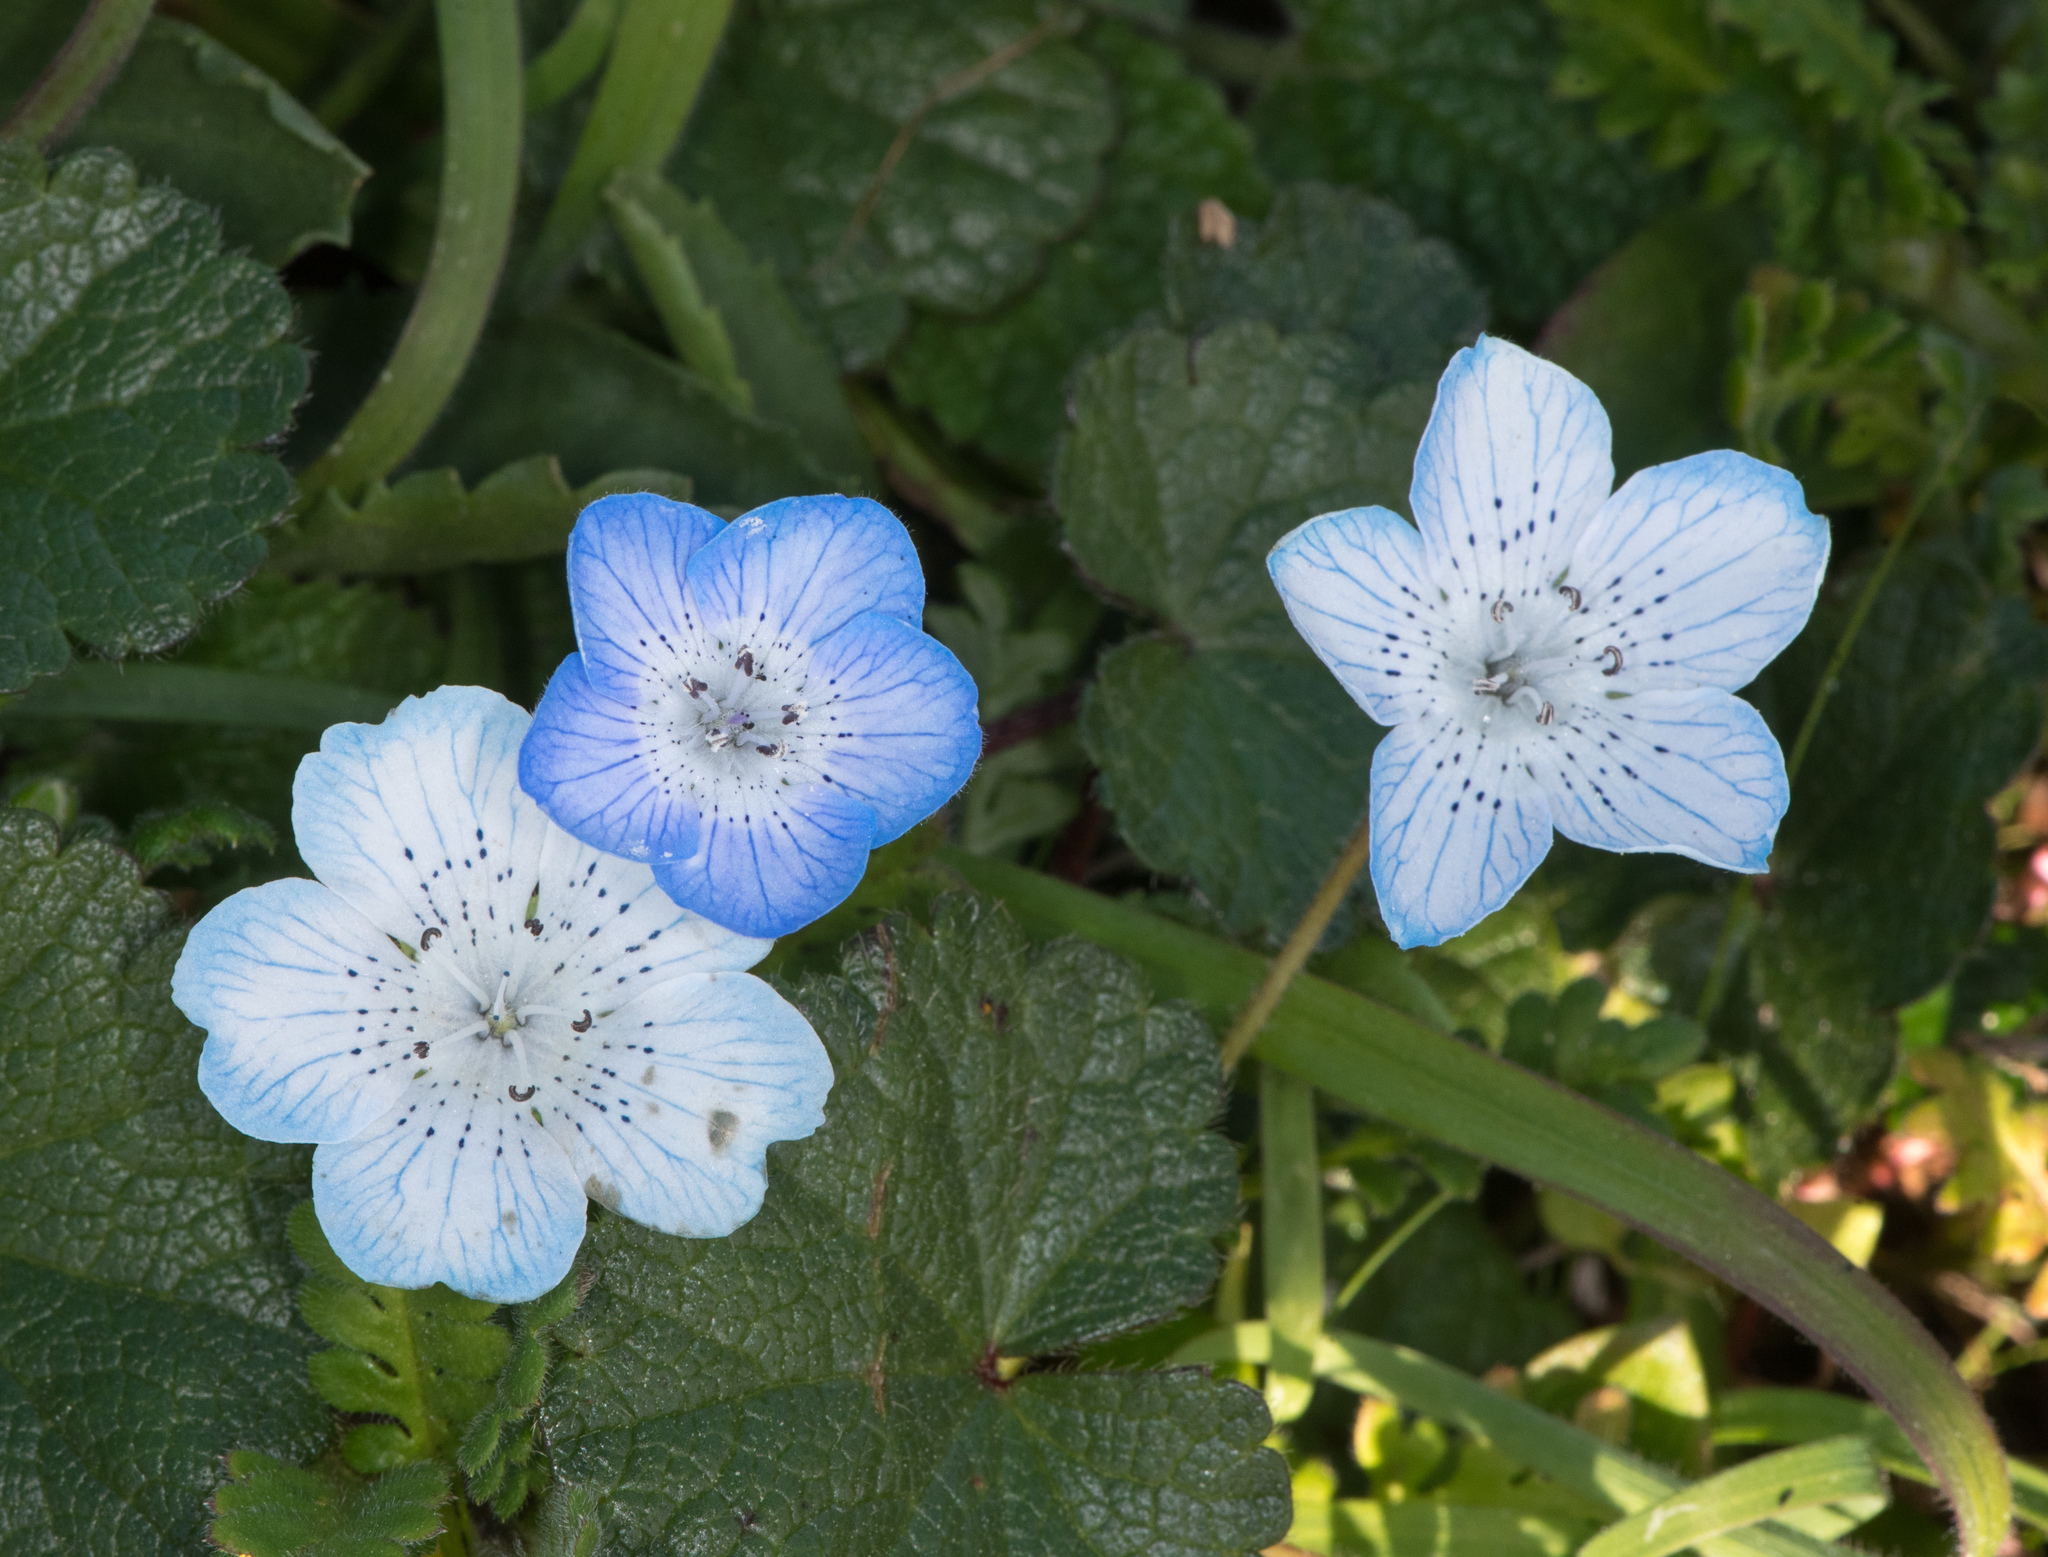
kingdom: Plantae
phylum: Tracheophyta
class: Magnoliopsida
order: Boraginales
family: Hydrophyllaceae
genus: Nemophila
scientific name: Nemophila menziesii
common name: Baby's-blue-eyes
